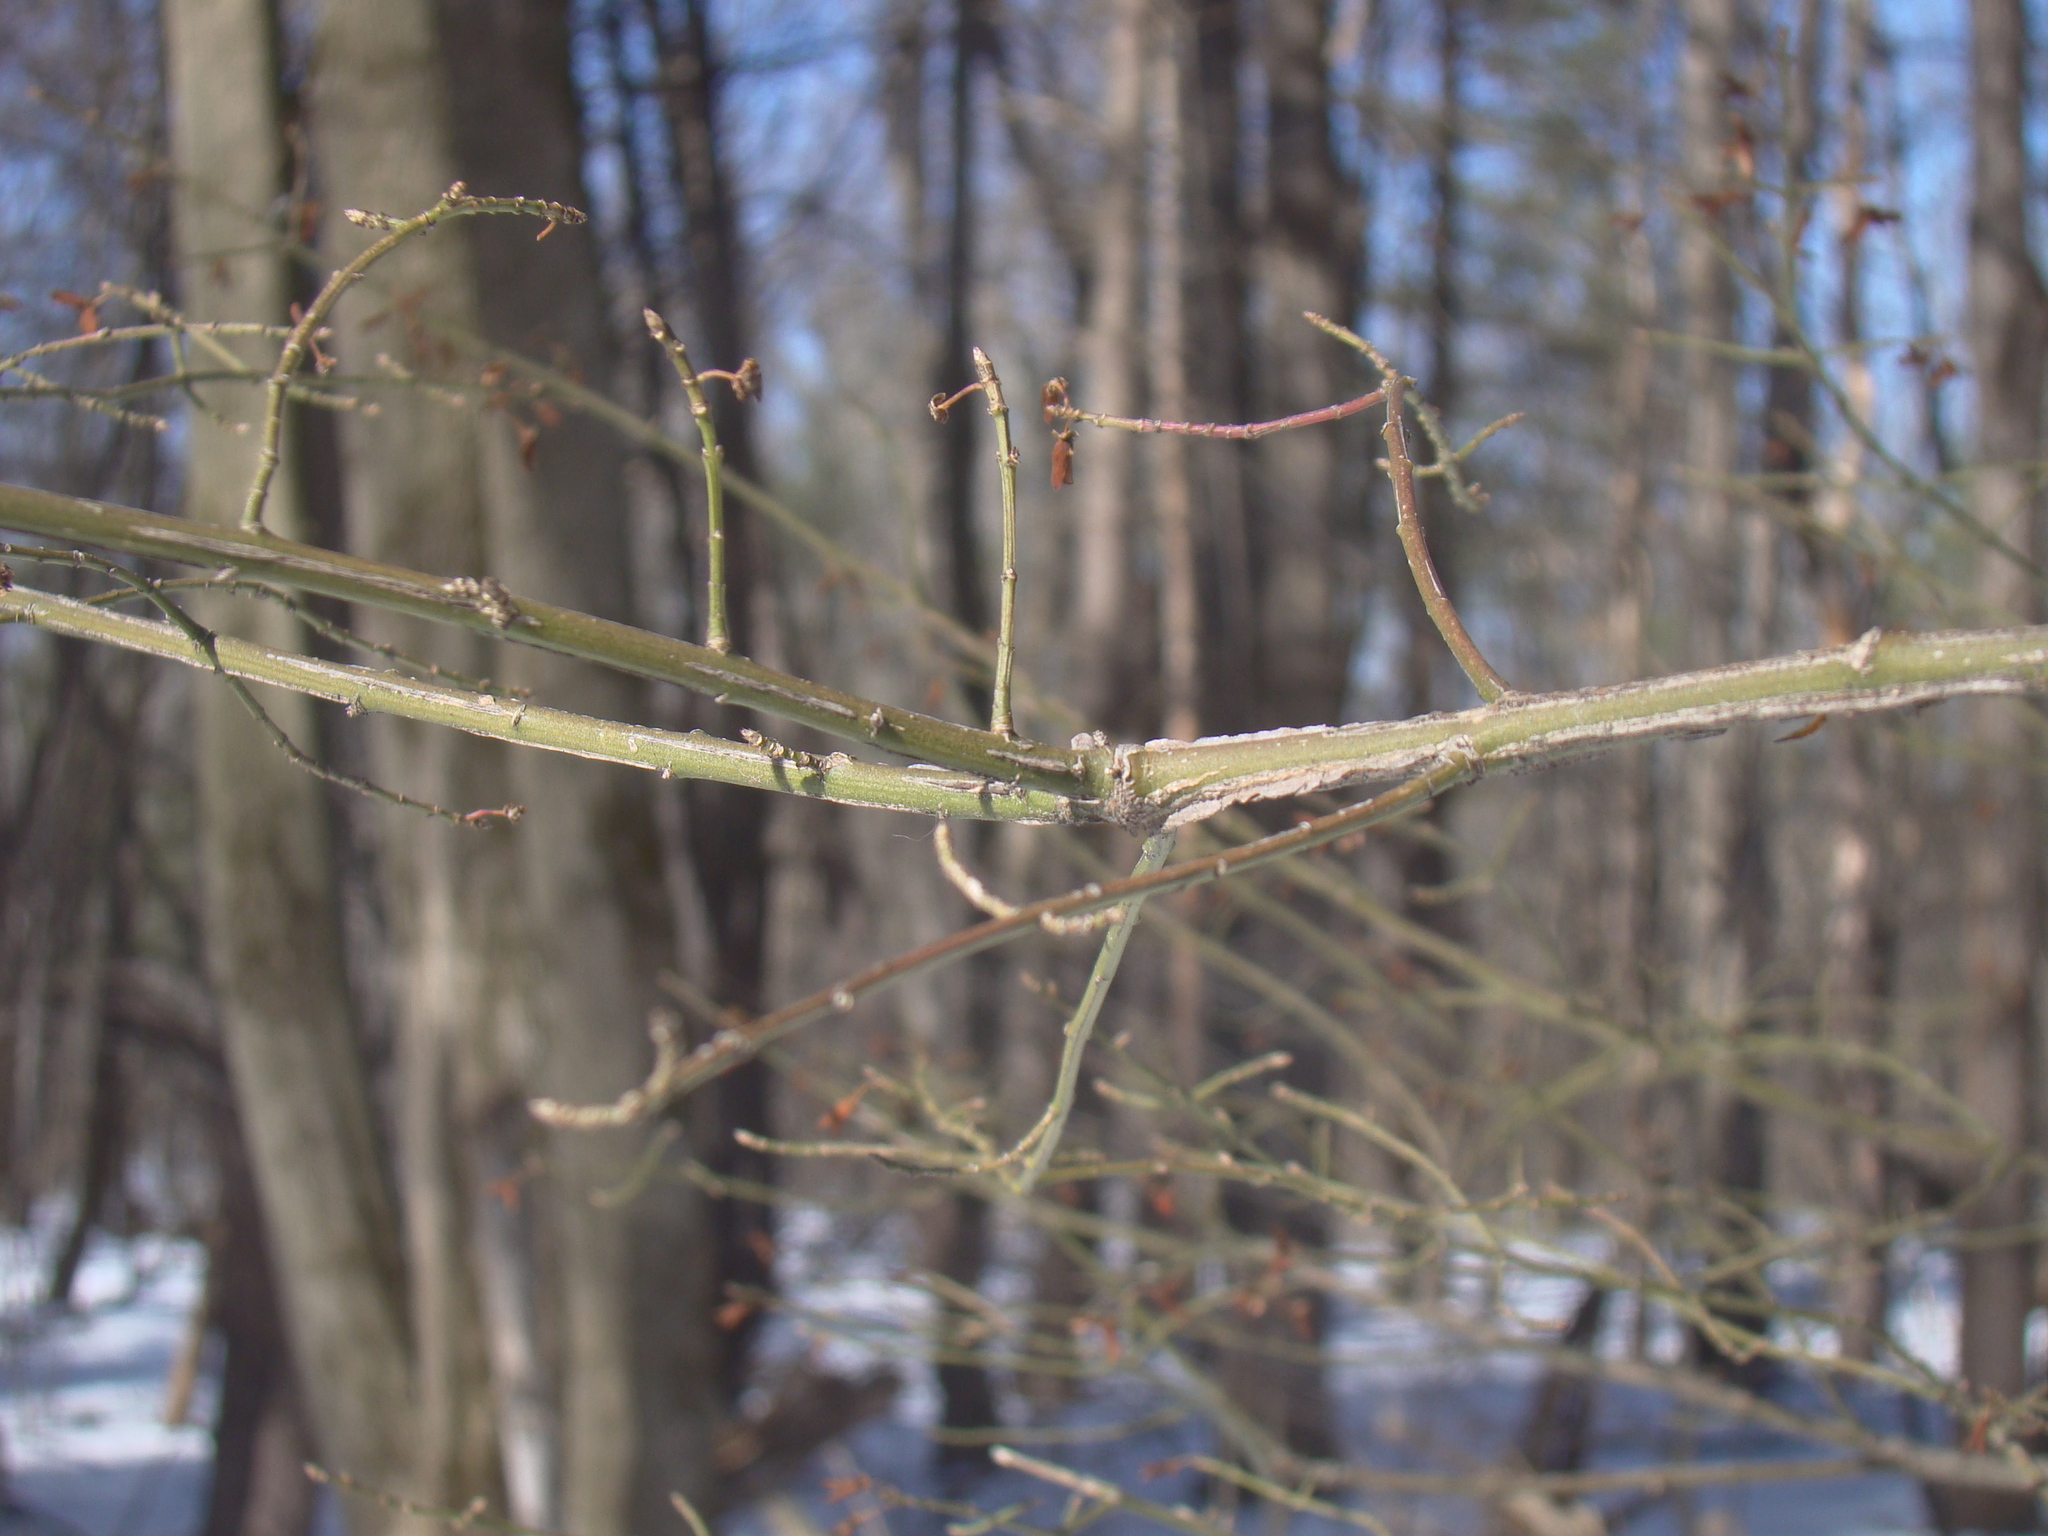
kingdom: Plantae
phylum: Tracheophyta
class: Magnoliopsida
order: Celastrales
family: Celastraceae
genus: Euonymus
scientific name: Euonymus alatus
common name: Winged euonymus
